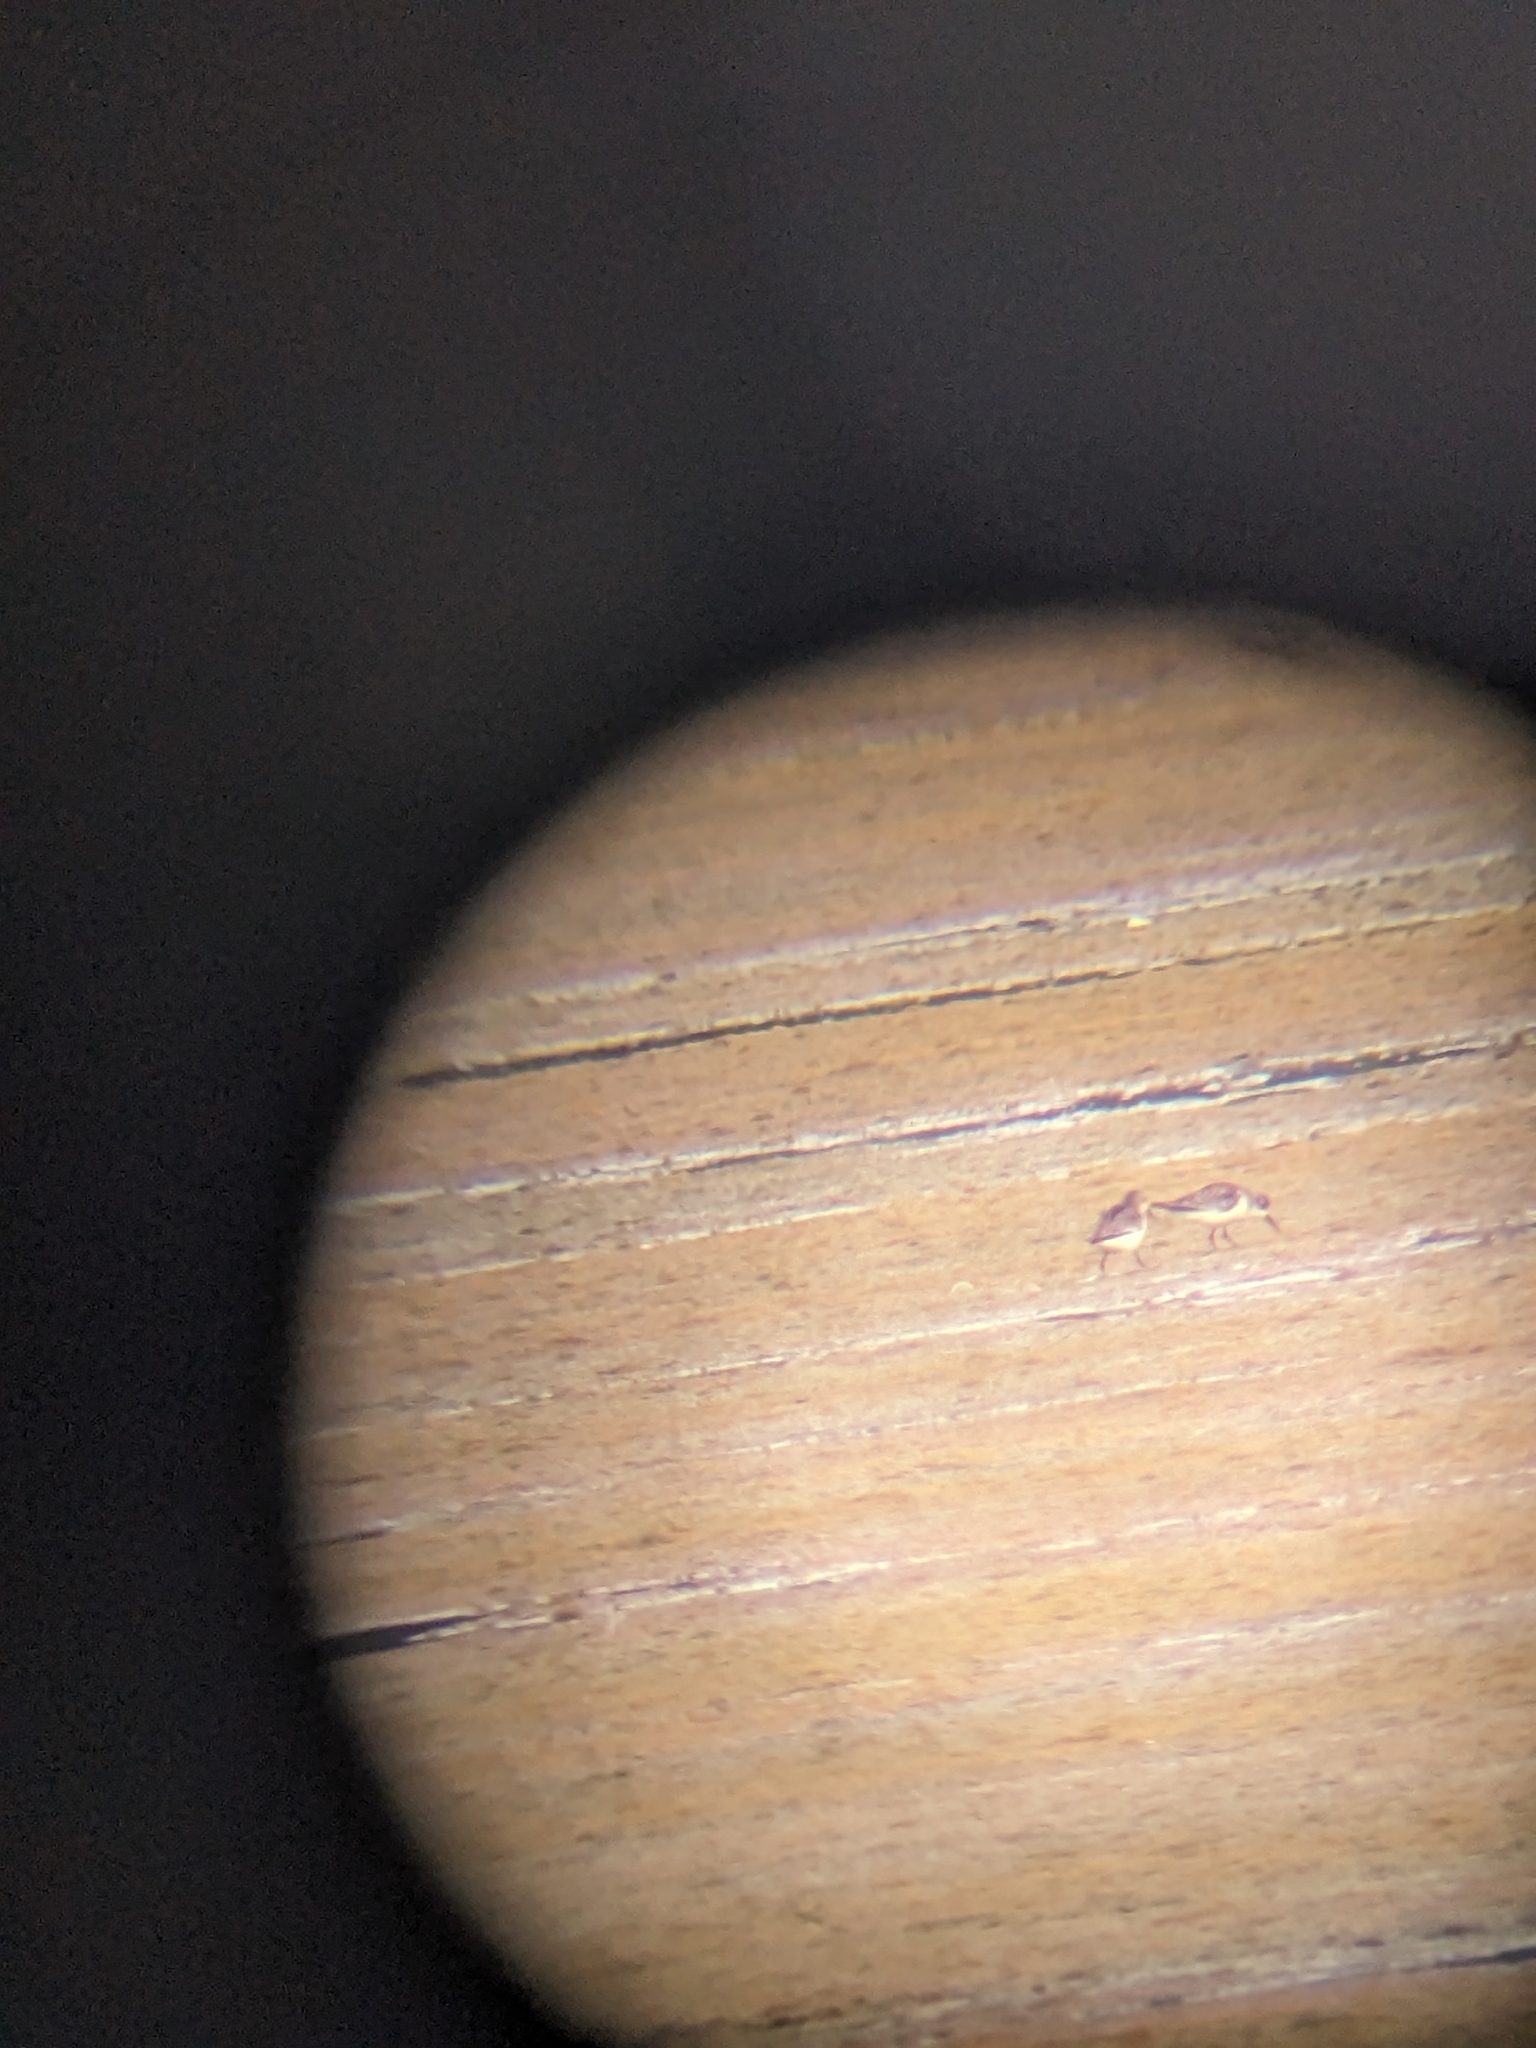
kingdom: Animalia
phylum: Chordata
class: Aves
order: Charadriiformes
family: Scolopacidae
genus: Calidris
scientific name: Calidris mauri
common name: Western sandpiper
